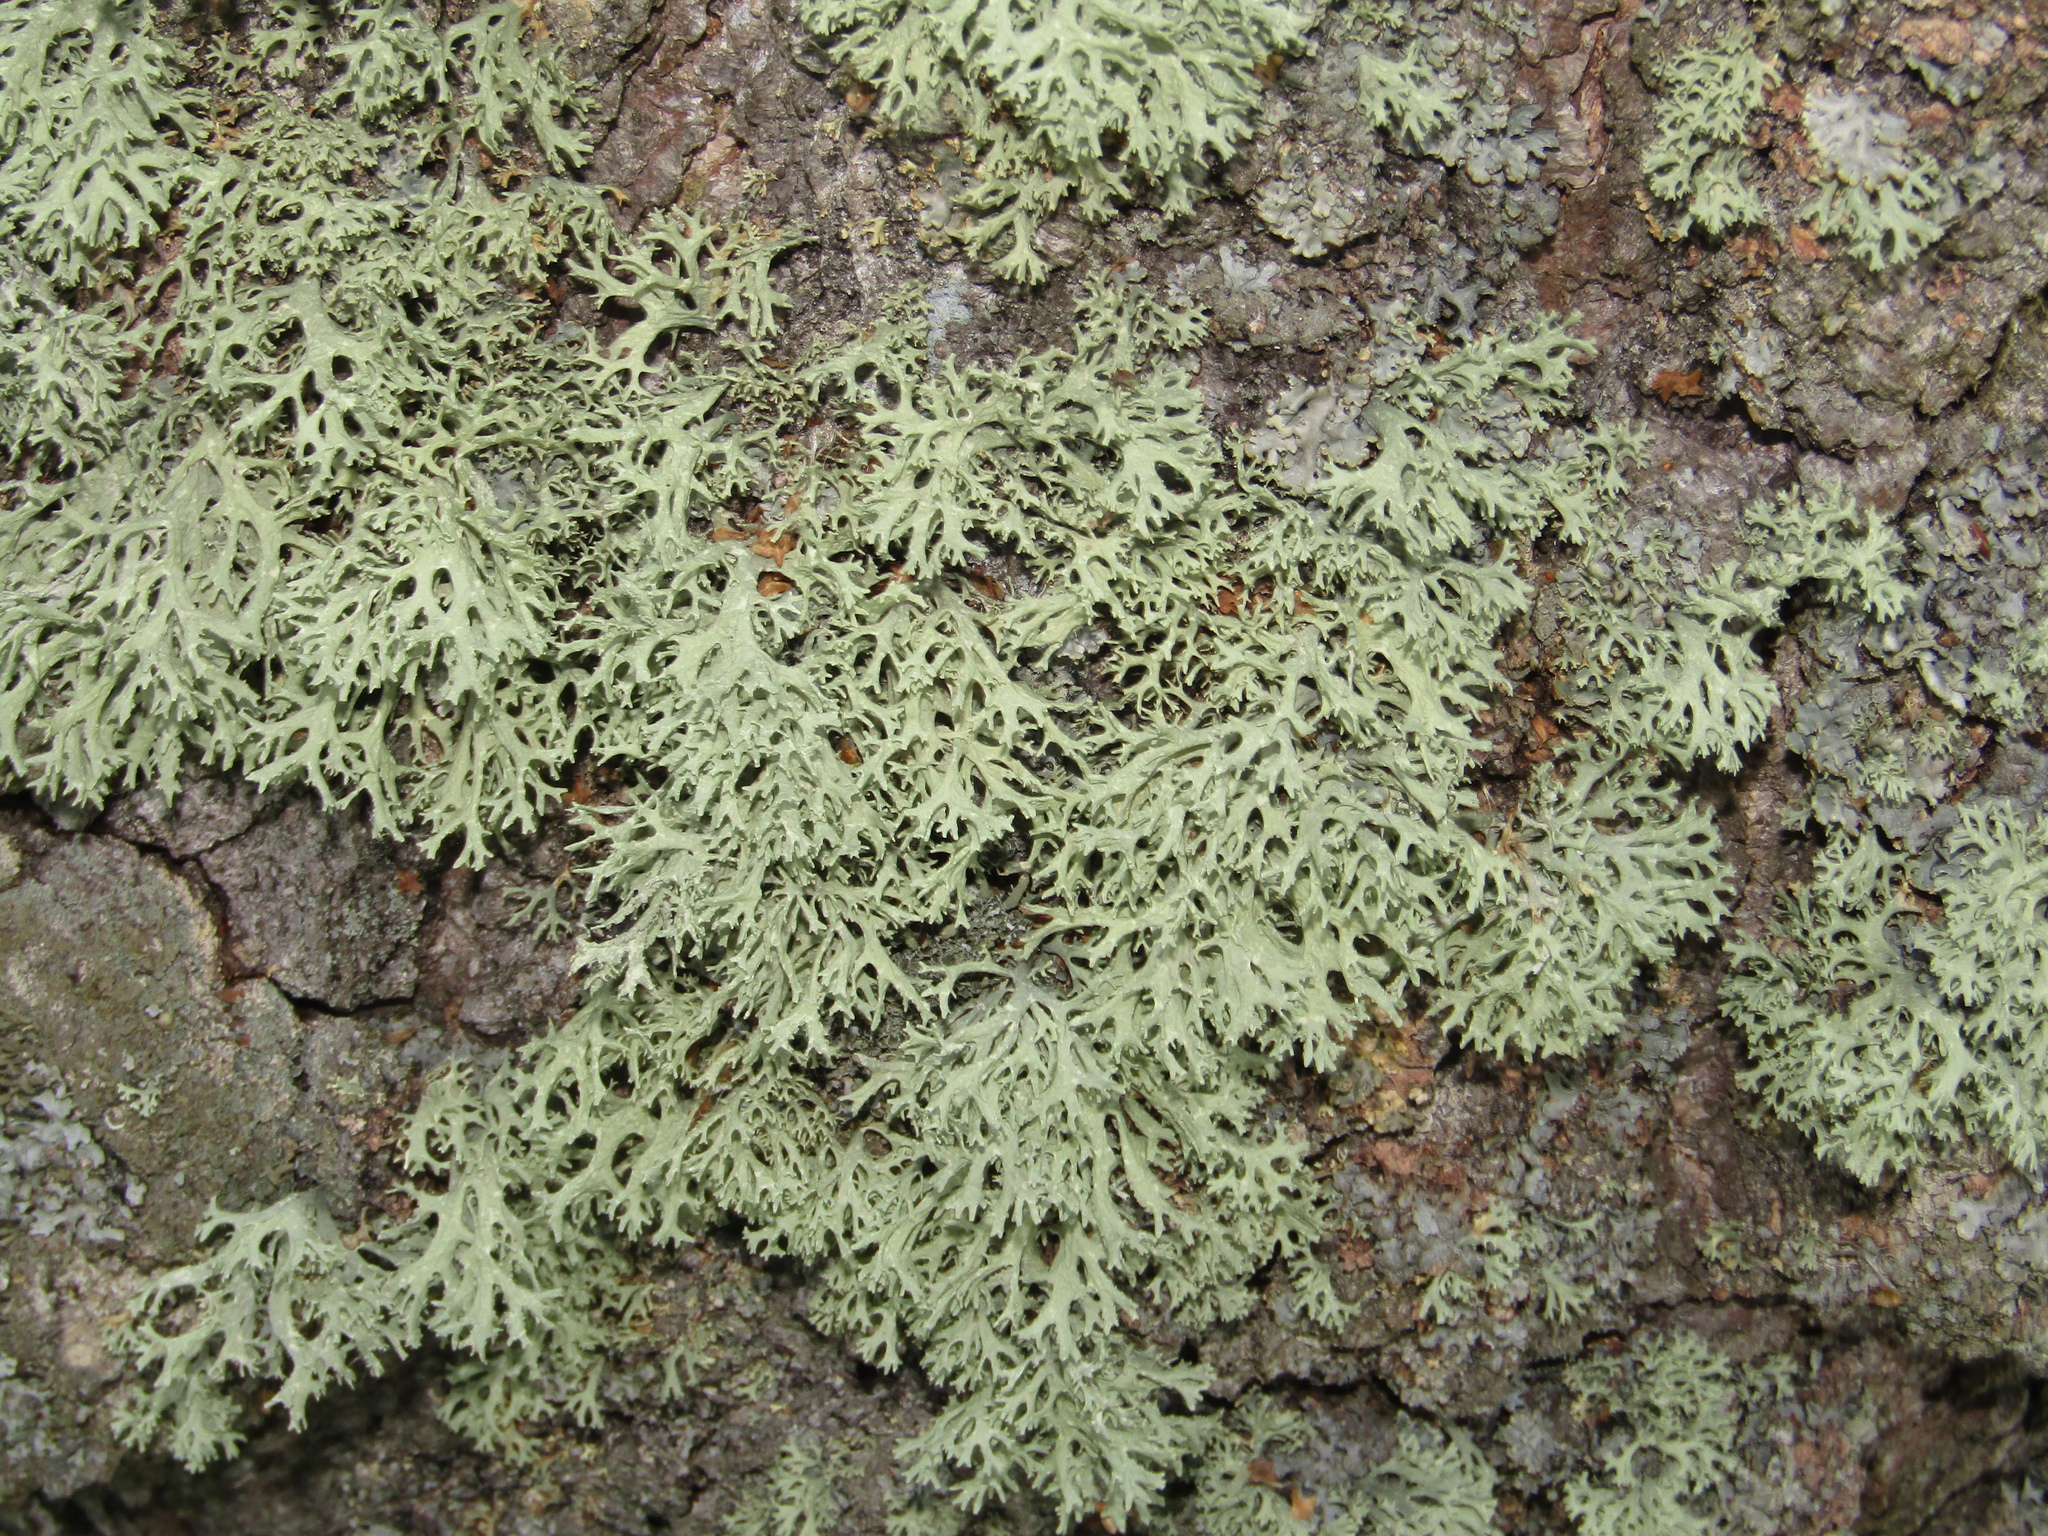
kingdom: Fungi
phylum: Ascomycota
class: Lecanoromycetes
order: Lecanorales
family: Parmeliaceae
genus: Evernia
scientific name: Evernia prunastri
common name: Oak moss
